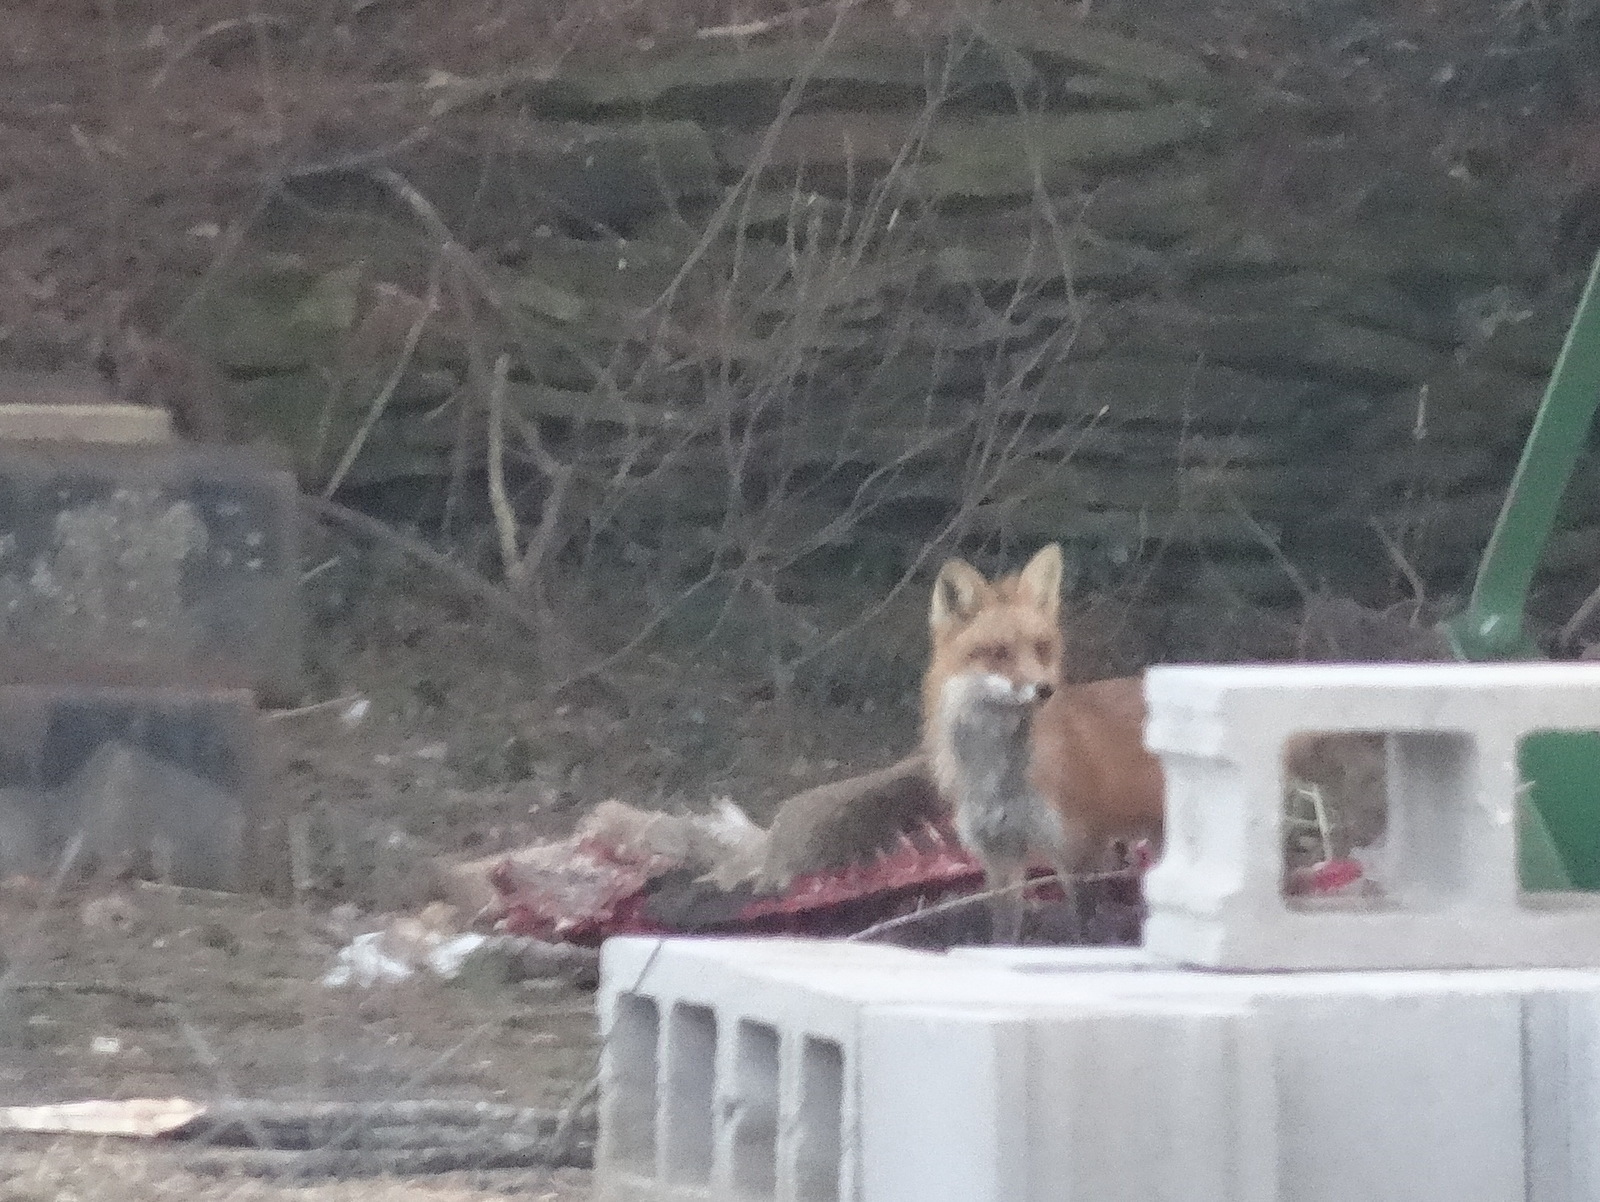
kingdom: Animalia
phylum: Chordata
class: Mammalia
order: Carnivora
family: Canidae
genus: Vulpes
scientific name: Vulpes vulpes
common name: Red fox
